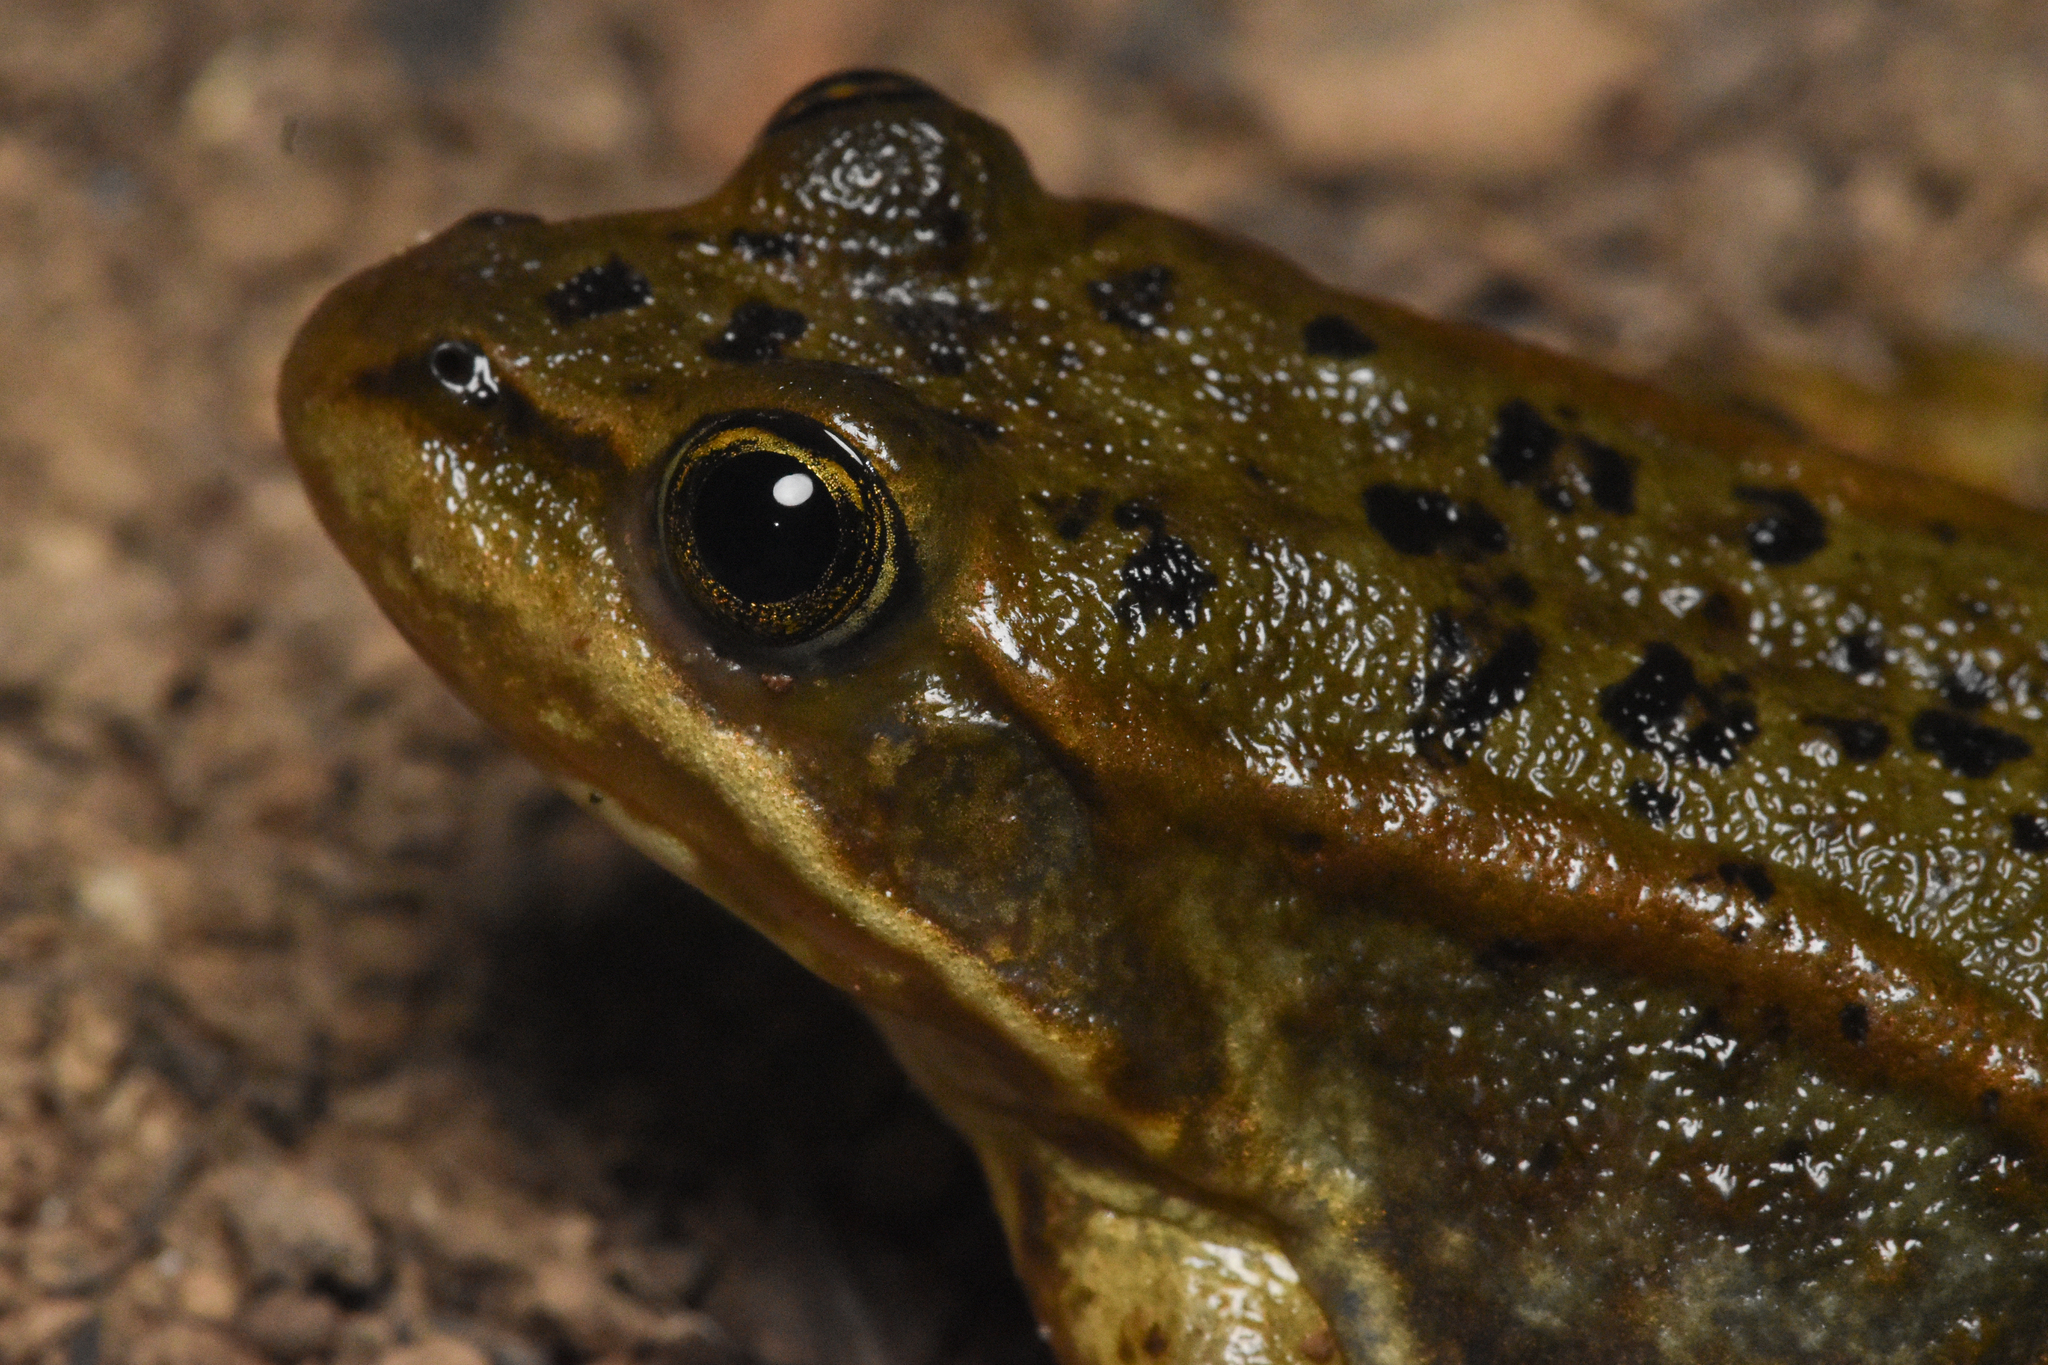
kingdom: Animalia
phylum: Chordata
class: Amphibia
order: Anura
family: Ranidae
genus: Rana
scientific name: Rana luteiventris
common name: Columbia spotted frog
